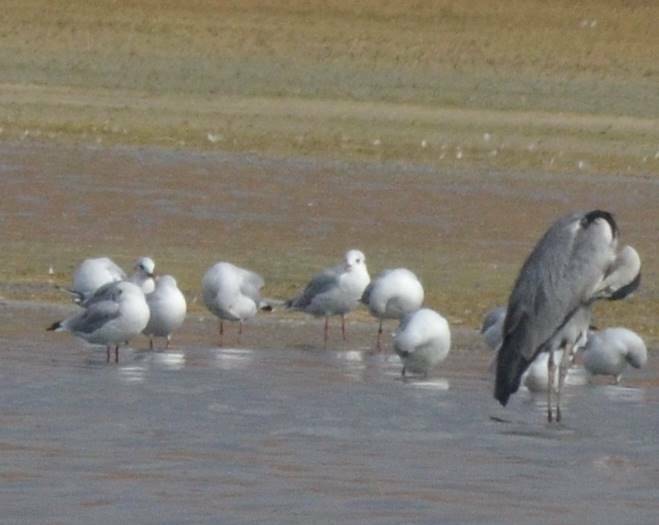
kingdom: Animalia
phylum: Chordata
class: Aves
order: Charadriiformes
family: Laridae
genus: Chroicocephalus
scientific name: Chroicocephalus ridibundus
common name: Black-headed gull
